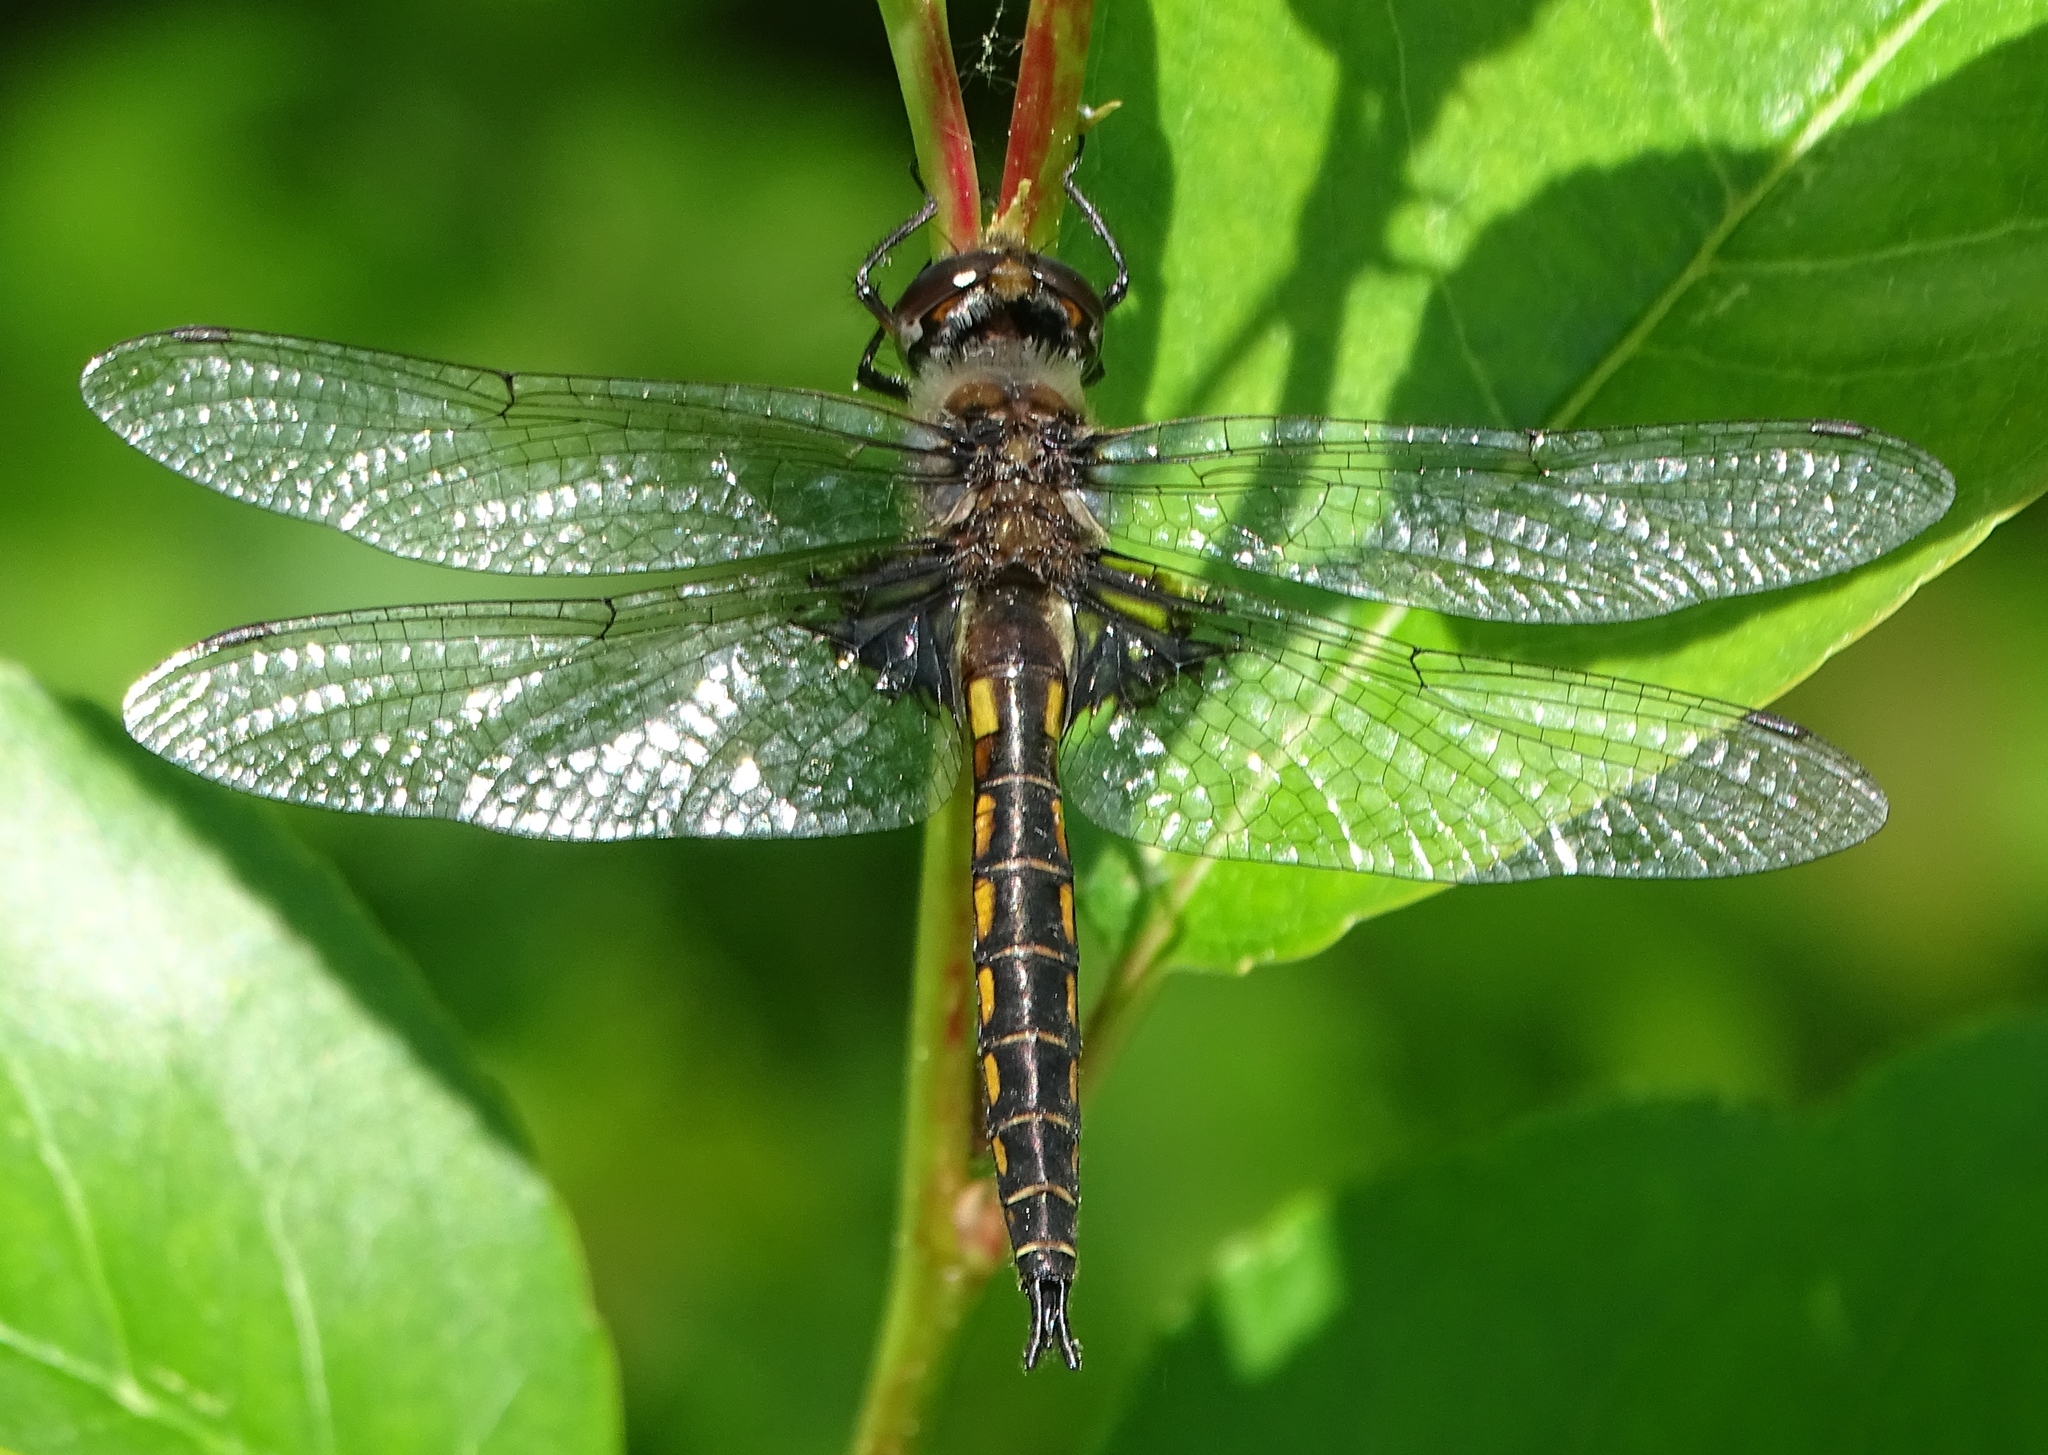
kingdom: Animalia
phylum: Arthropoda
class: Insecta
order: Odonata
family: Corduliidae
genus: Epitheca
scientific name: Epitheca cynosura
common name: Common baskettail
